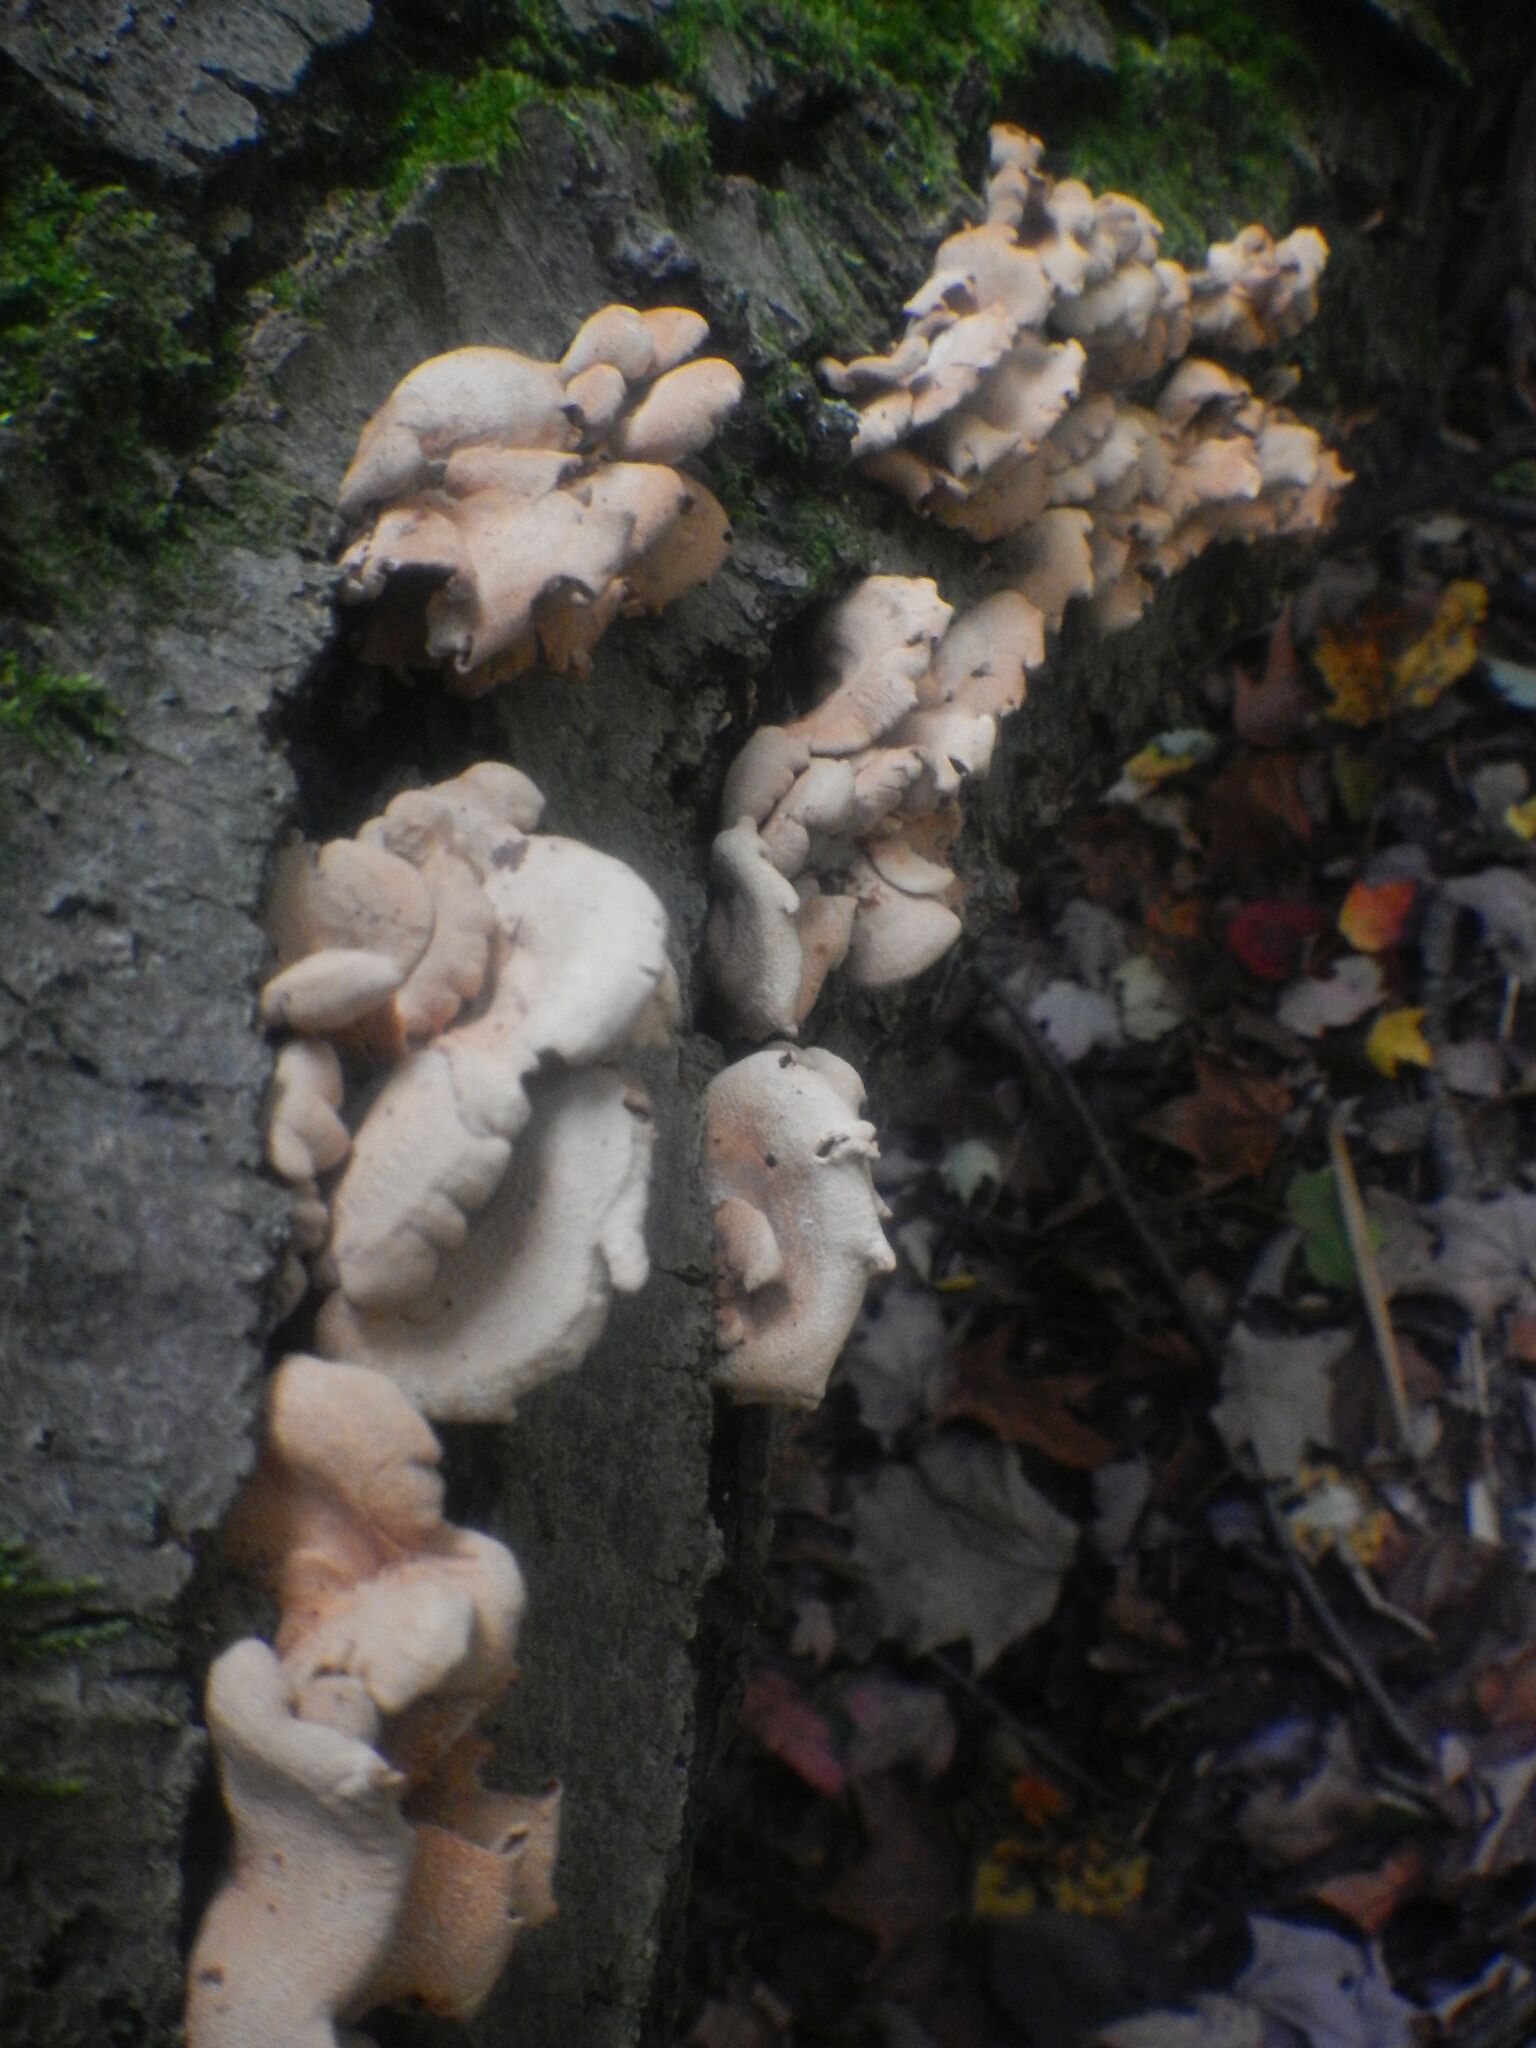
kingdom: Fungi
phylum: Basidiomycota
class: Agaricomycetes
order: Agaricales
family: Mycenaceae
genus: Panellus
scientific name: Panellus stipticus
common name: Bitter oysterling
